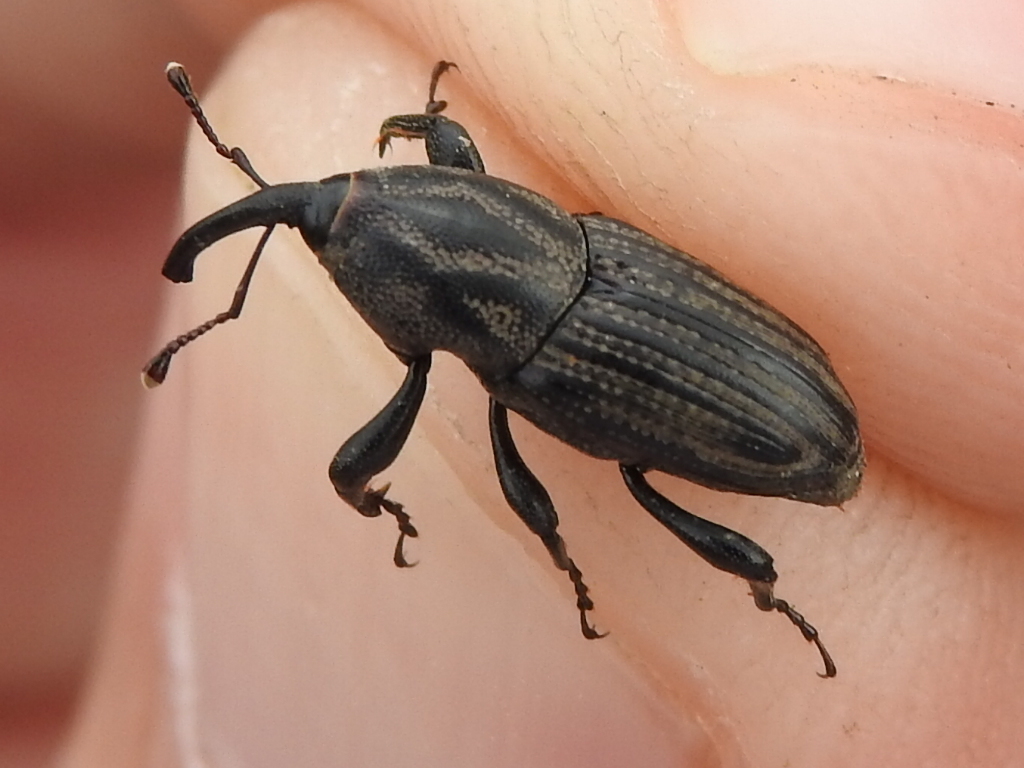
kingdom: Animalia
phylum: Arthropoda
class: Insecta
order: Coleoptera
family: Dryophthoridae
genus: Sphenophorus
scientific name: Sphenophorus scoparius
